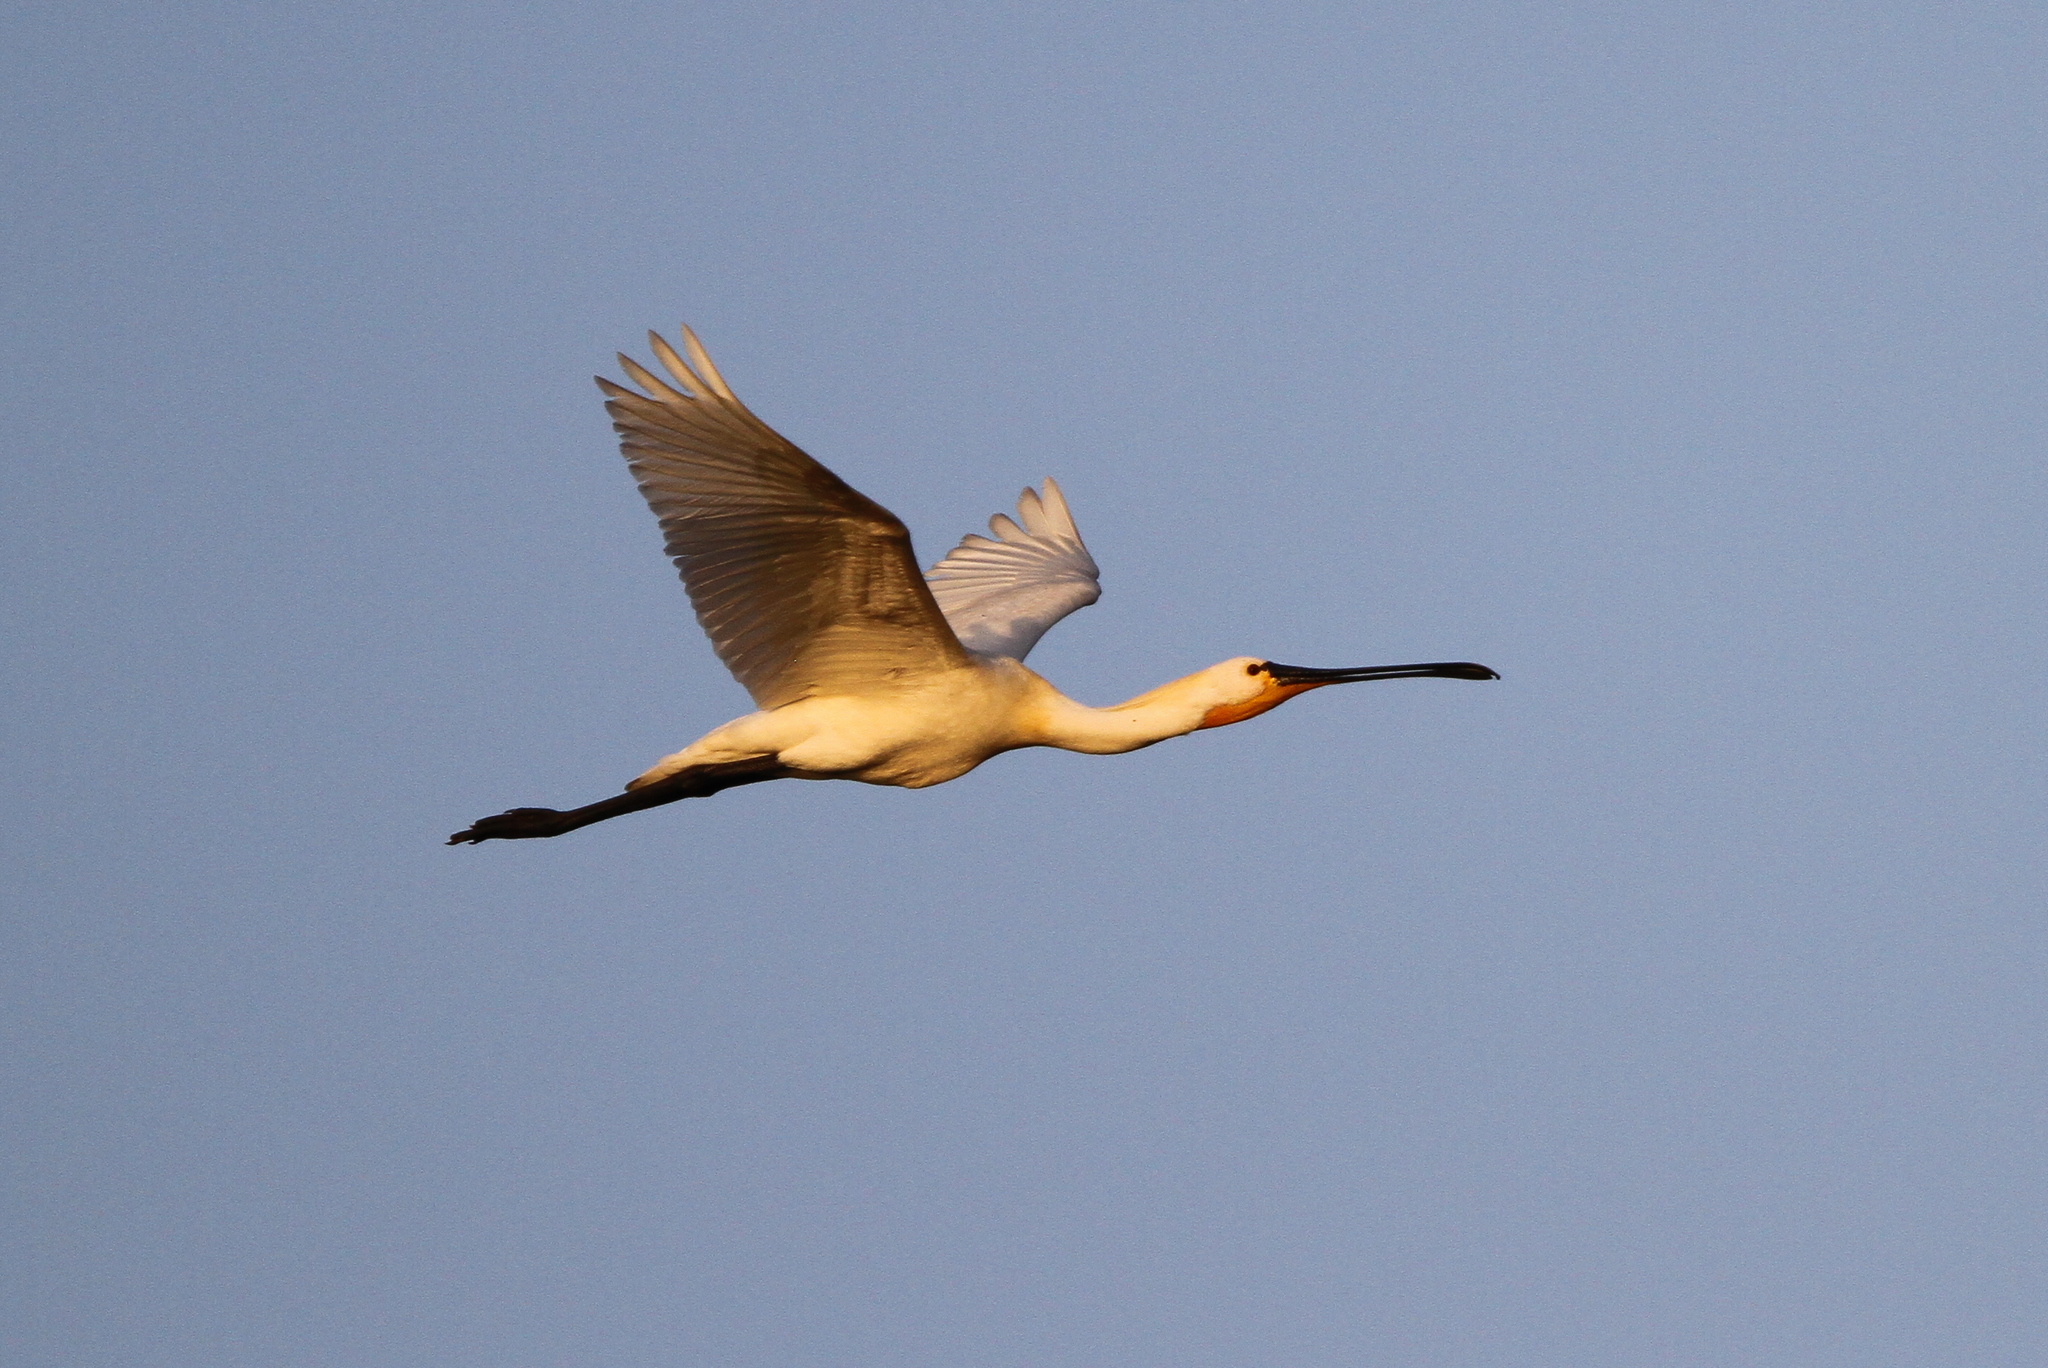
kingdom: Animalia
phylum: Chordata
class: Aves
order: Pelecaniformes
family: Threskiornithidae
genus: Platalea
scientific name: Platalea leucorodia
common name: Eurasian spoonbill
